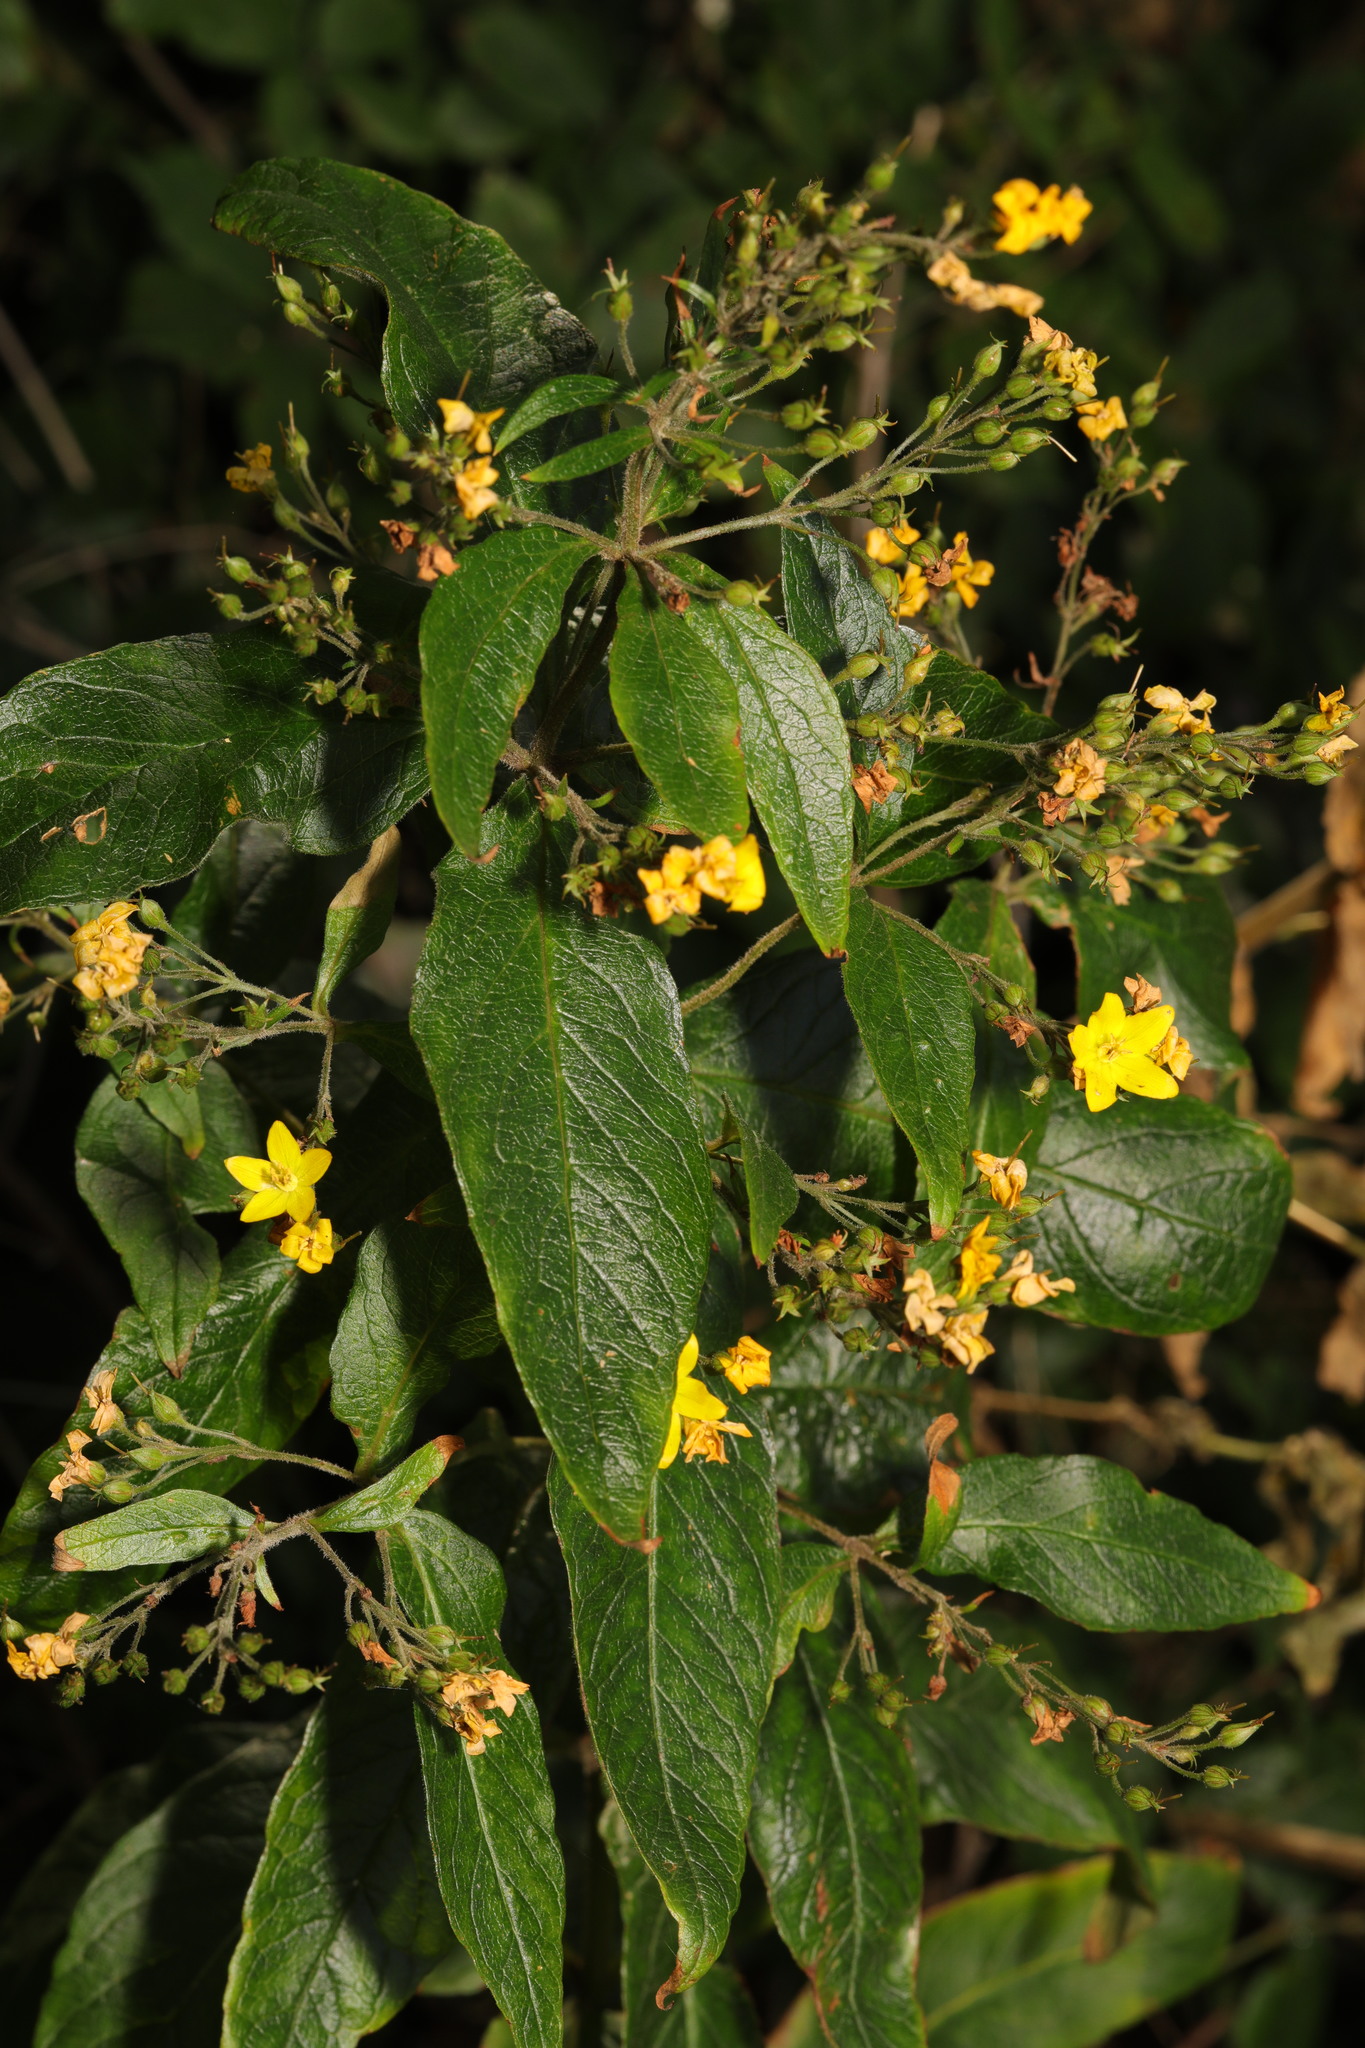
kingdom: Plantae
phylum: Tracheophyta
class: Magnoliopsida
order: Ericales
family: Primulaceae
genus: Lysimachia
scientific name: Lysimachia vulgaris
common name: Yellow loosestrife
